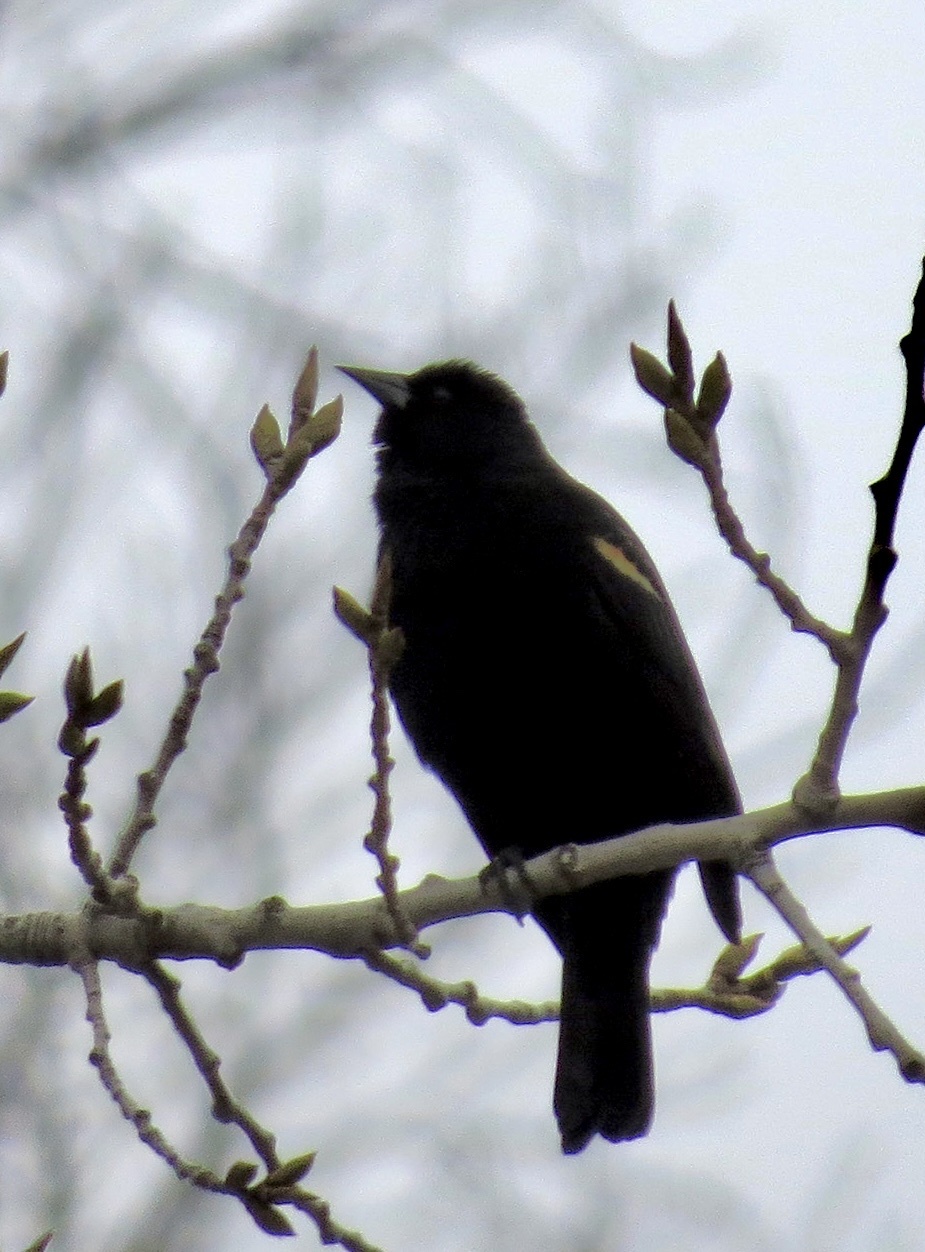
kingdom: Animalia
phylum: Chordata
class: Aves
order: Passeriformes
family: Icteridae
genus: Agelaius
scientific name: Agelaius phoeniceus
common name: Red-winged blackbird
